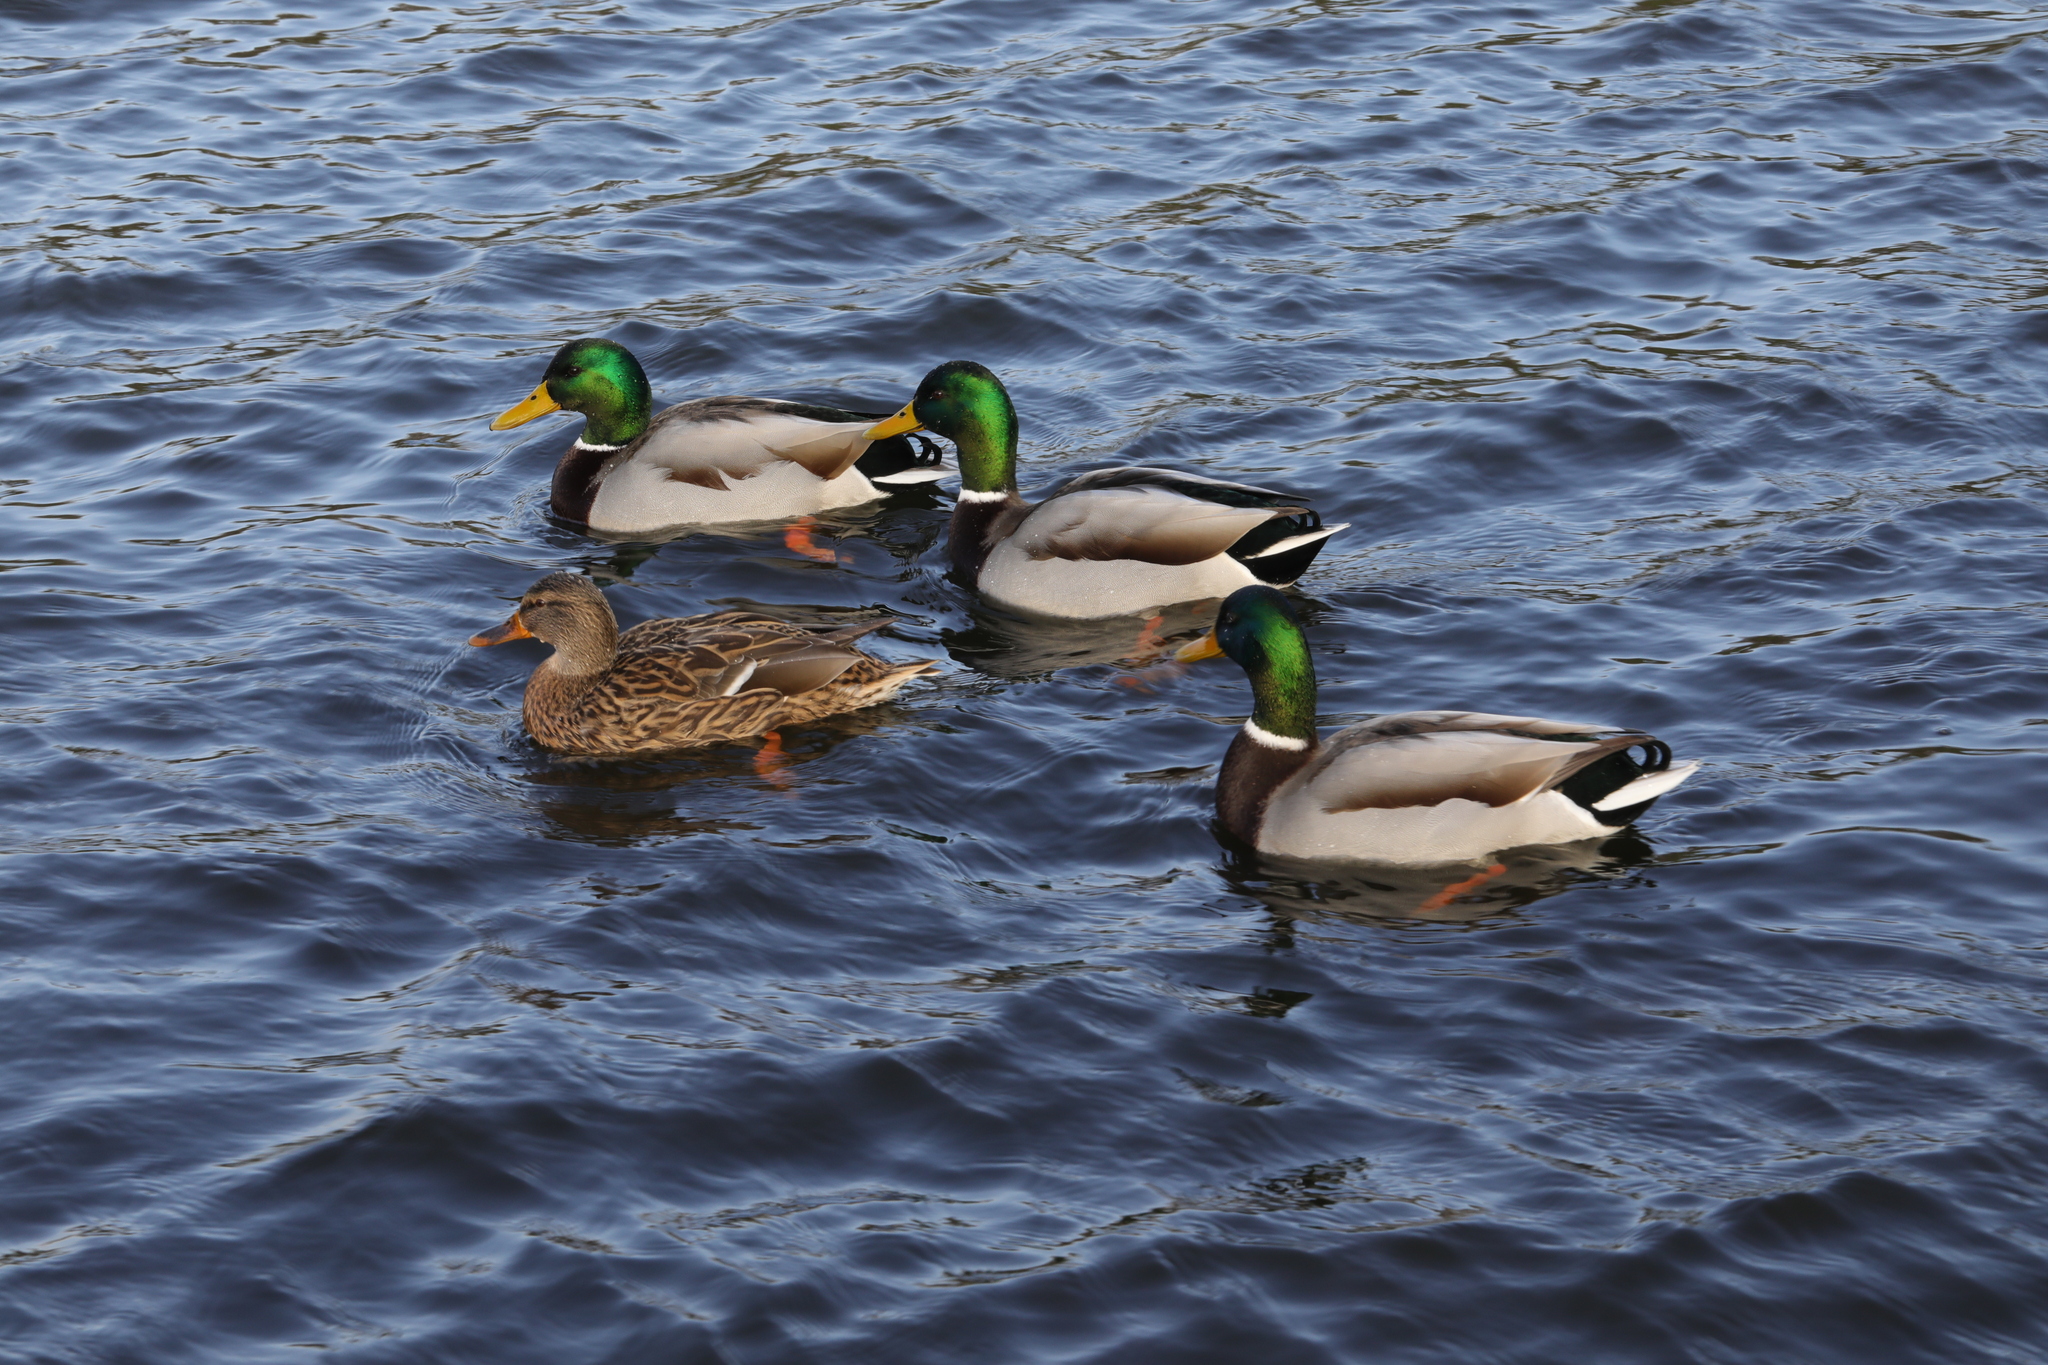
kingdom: Animalia
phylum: Chordata
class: Aves
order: Anseriformes
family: Anatidae
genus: Anas
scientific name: Anas platyrhynchos
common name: Mallard
